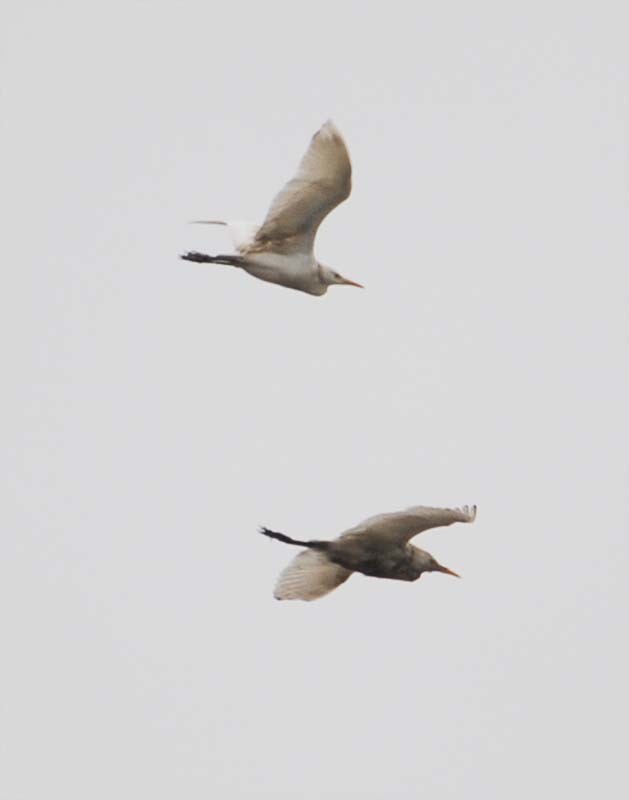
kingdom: Animalia
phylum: Chordata
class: Aves
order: Pelecaniformes
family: Ardeidae
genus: Bubulcus
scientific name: Bubulcus ibis
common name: Cattle egret
